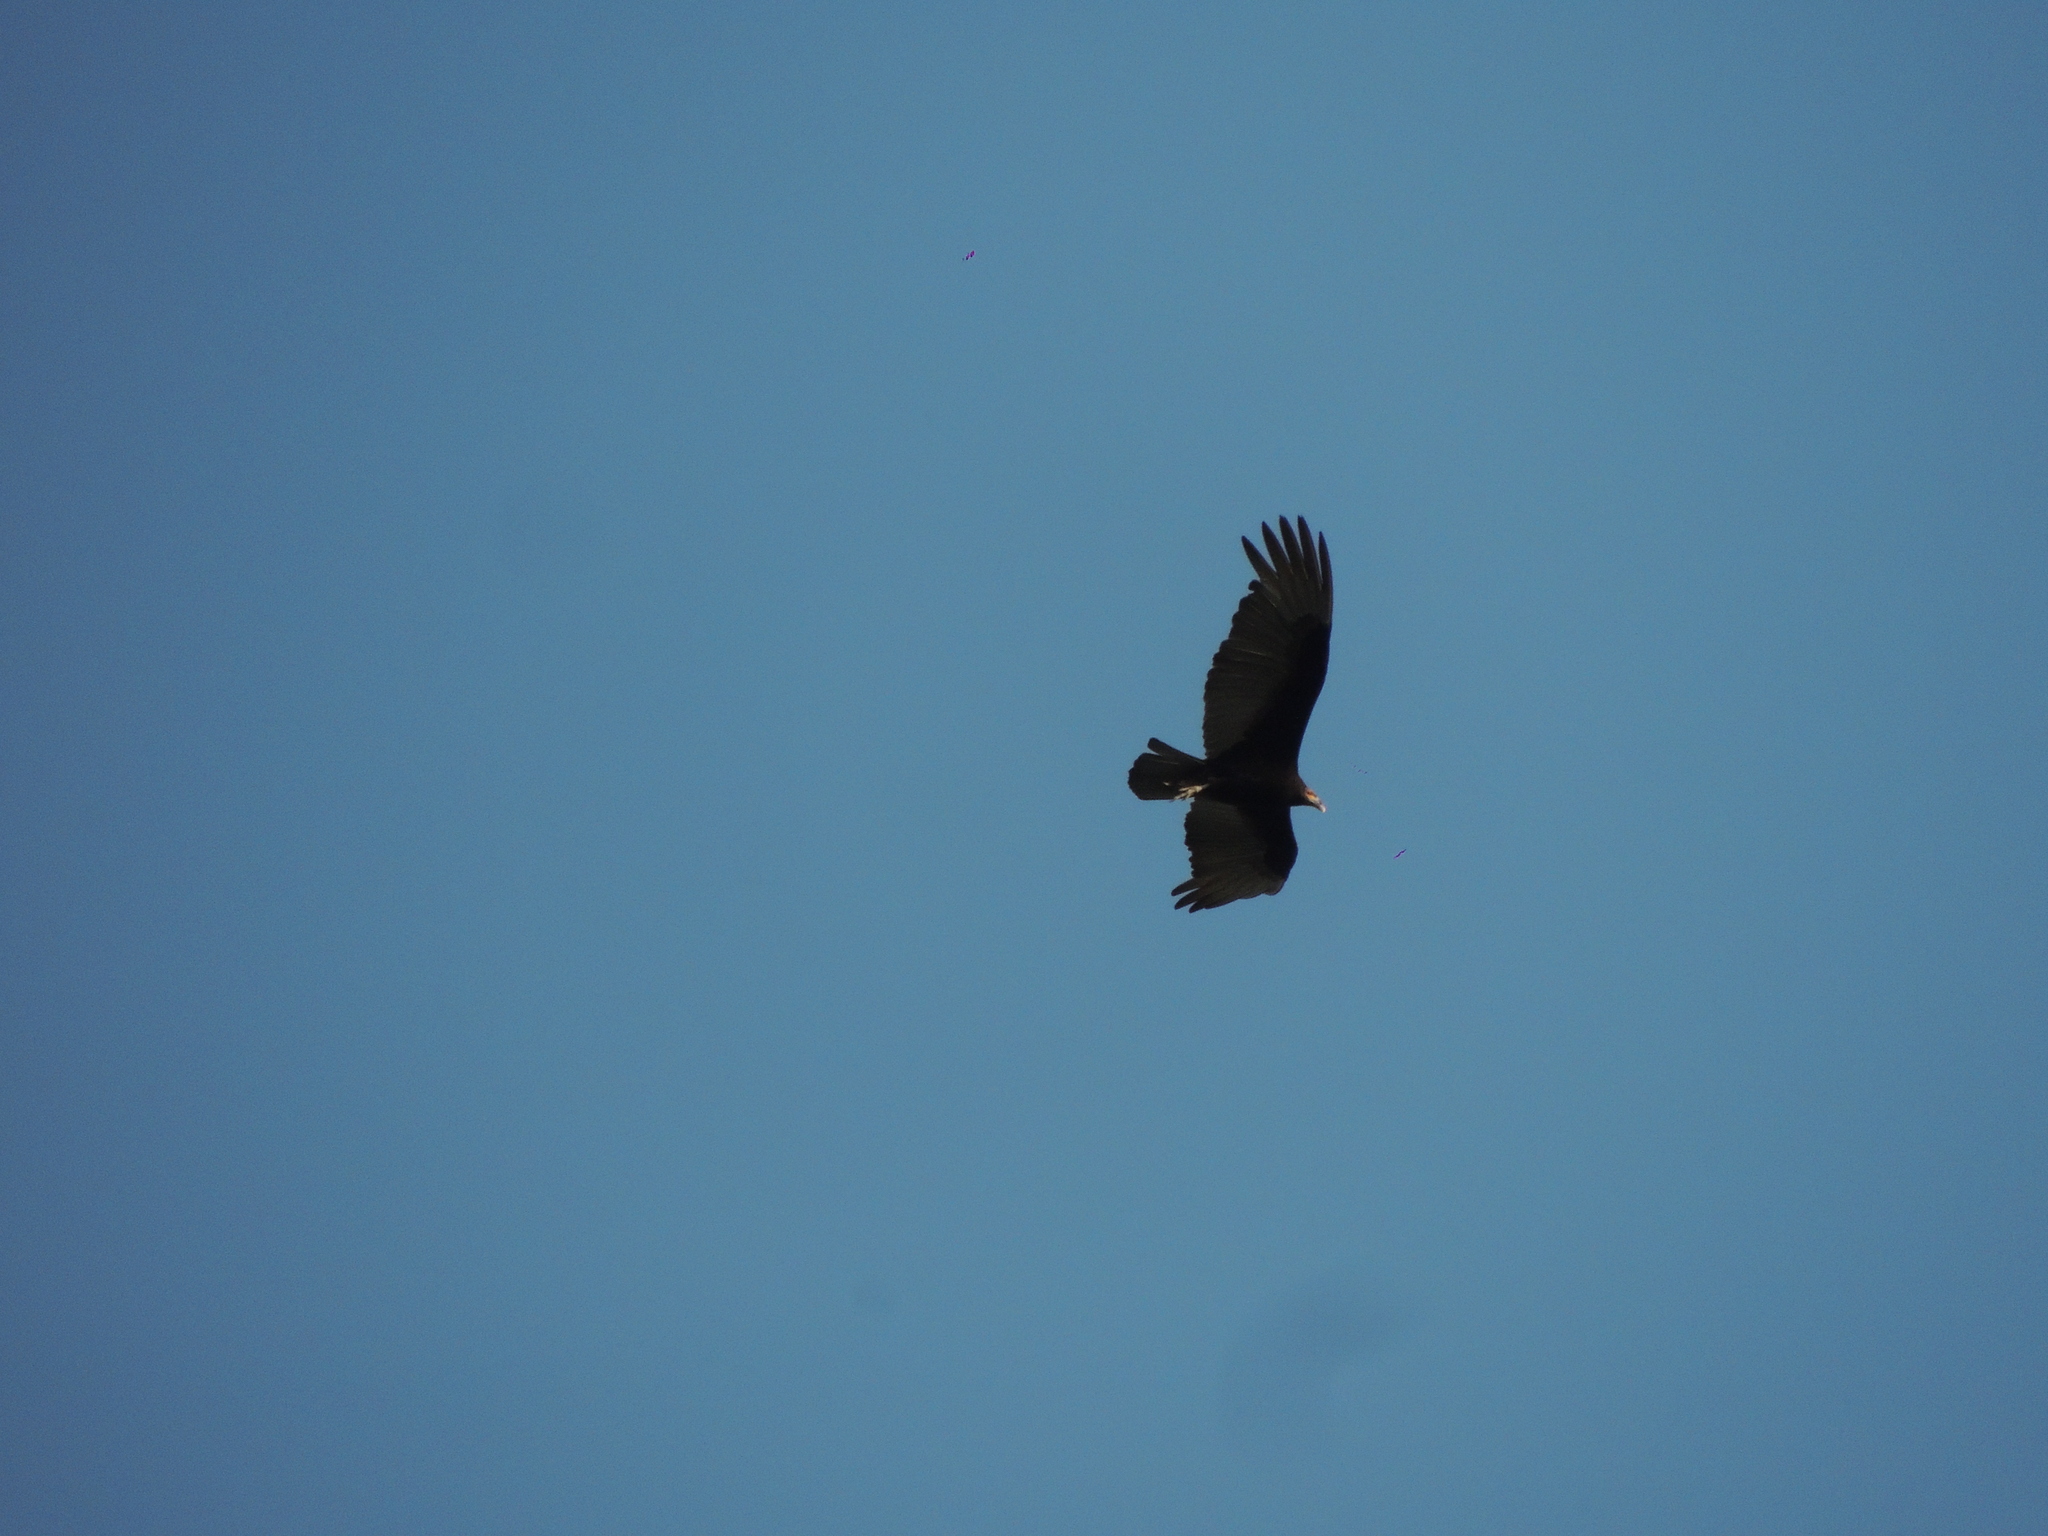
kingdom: Animalia
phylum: Chordata
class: Aves
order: Accipitriformes
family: Cathartidae
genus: Cathartes
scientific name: Cathartes burrovianus
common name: Lesser yellow-headed vulture
